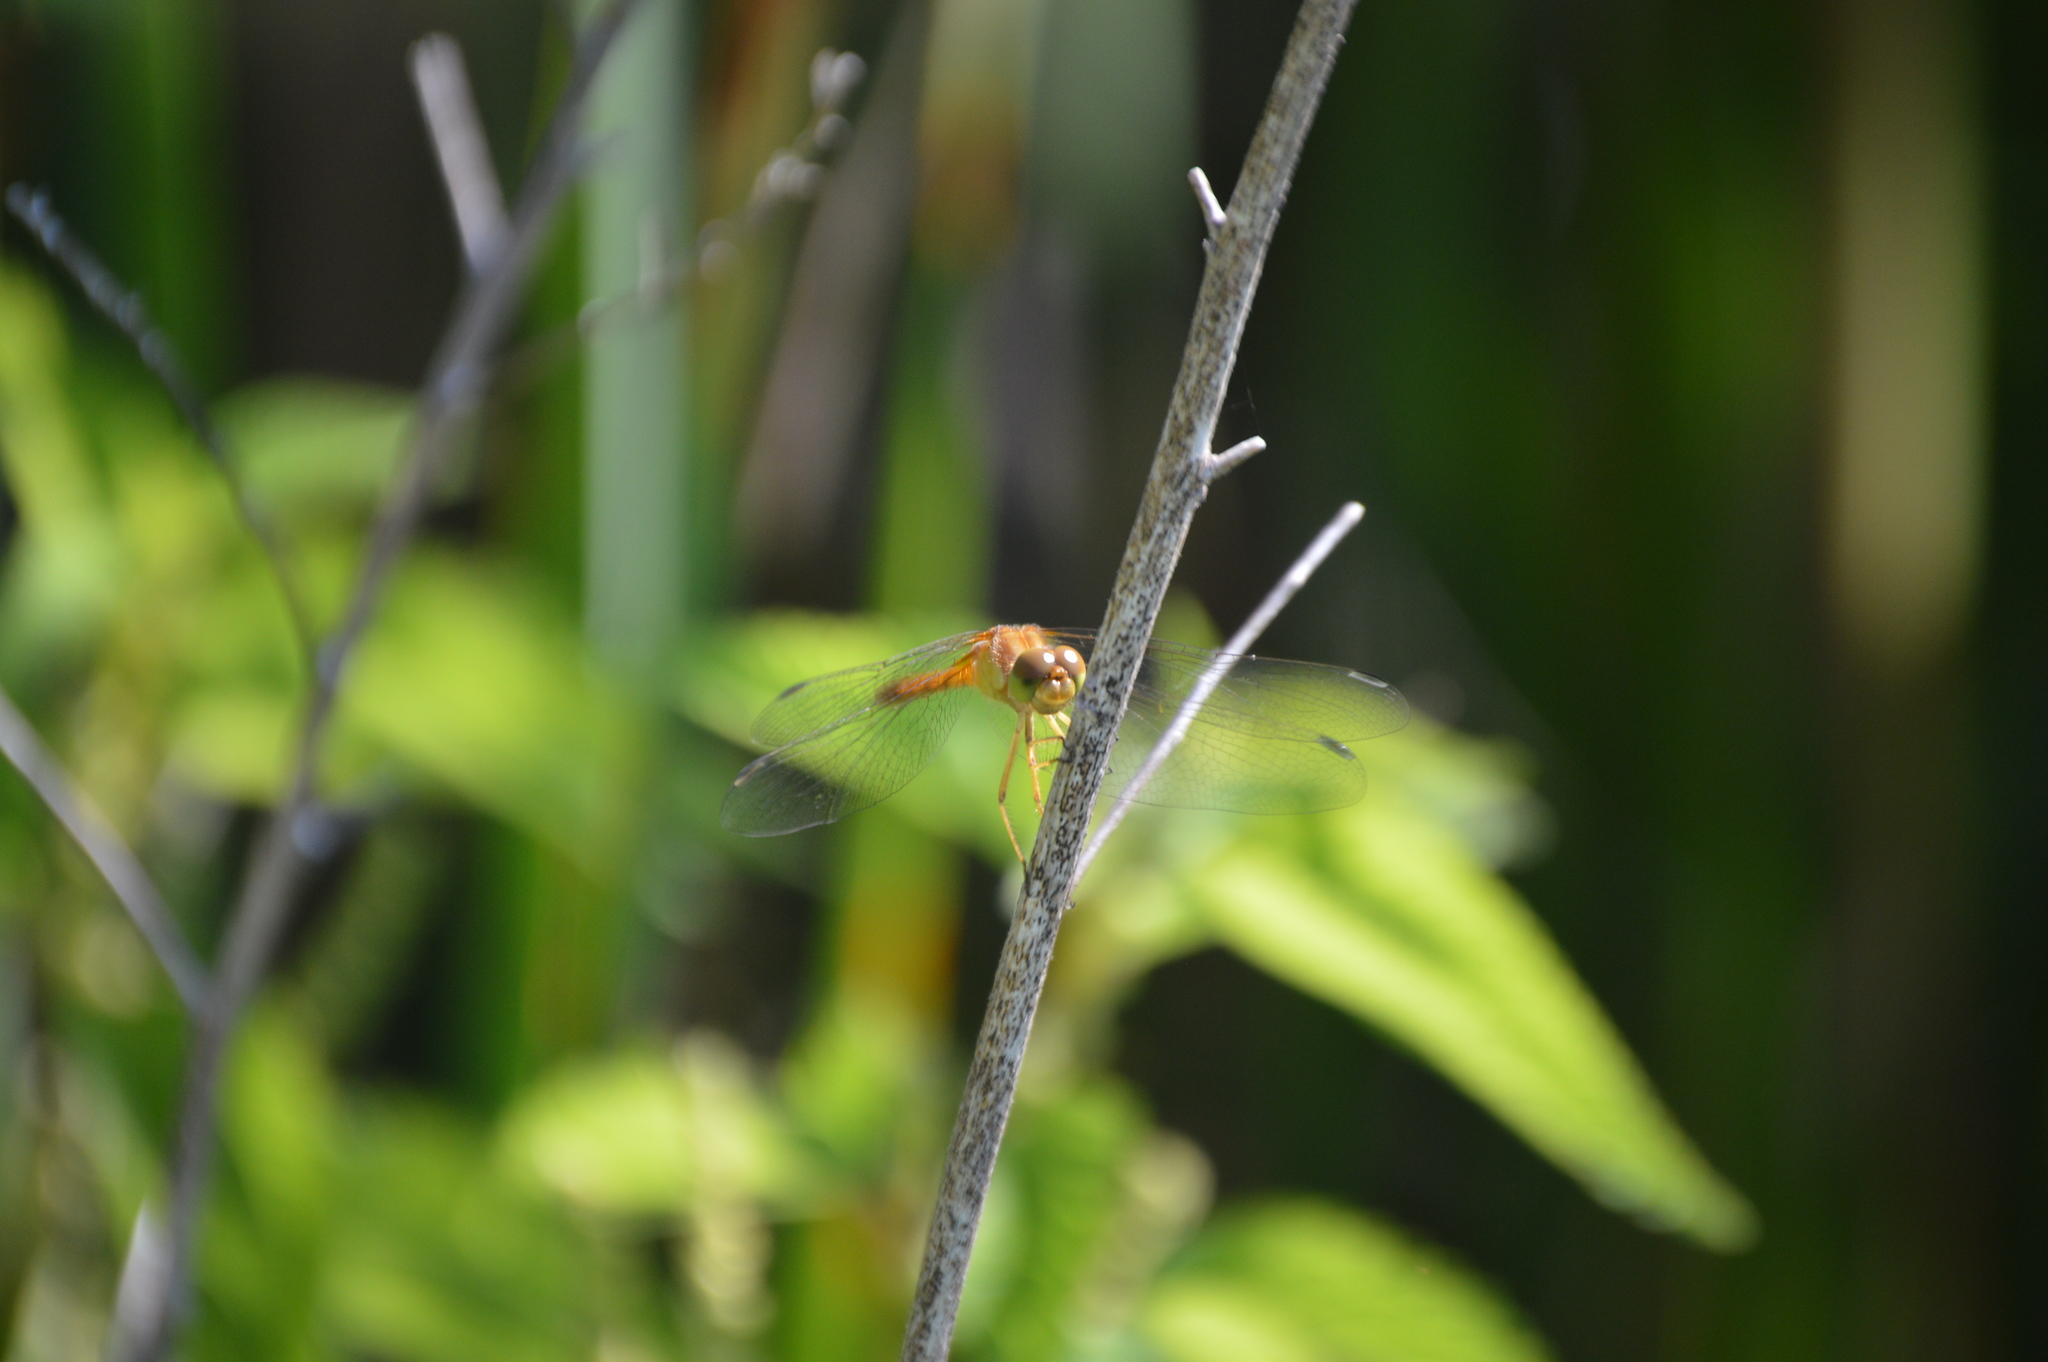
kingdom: Animalia
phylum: Arthropoda
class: Insecta
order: Odonata
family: Libellulidae
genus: Sympetrum
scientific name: Sympetrum vicinum
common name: Autumn meadowhawk
